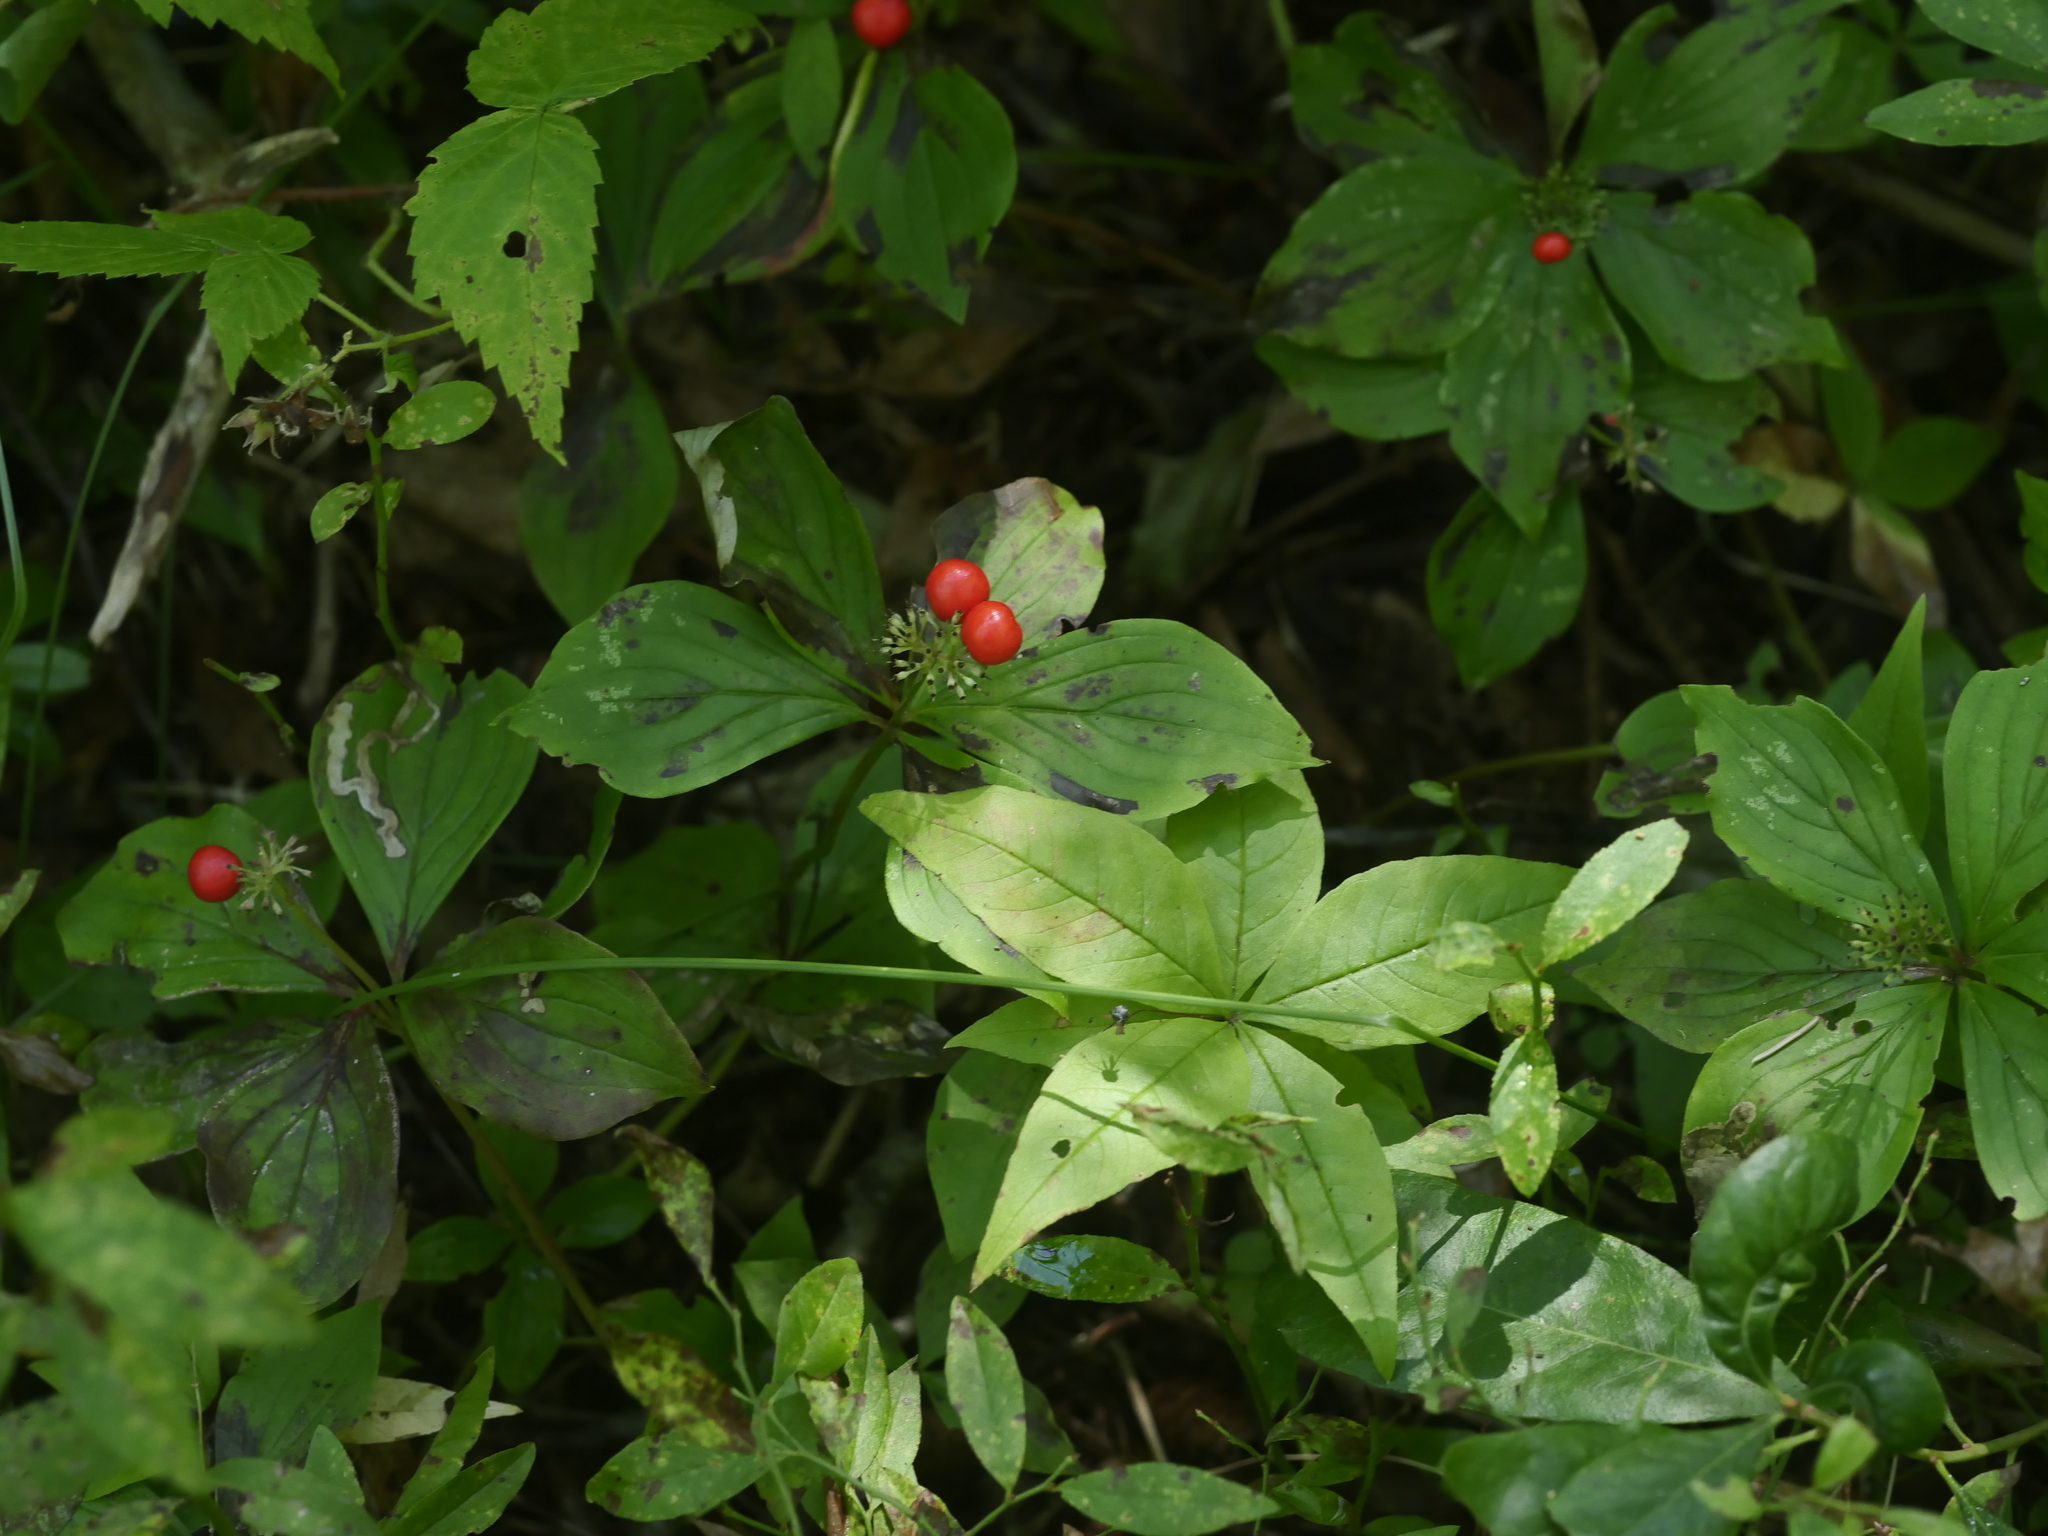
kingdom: Plantae
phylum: Tracheophyta
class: Magnoliopsida
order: Cornales
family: Cornaceae
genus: Cornus
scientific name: Cornus canadensis
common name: Creeping dogwood
